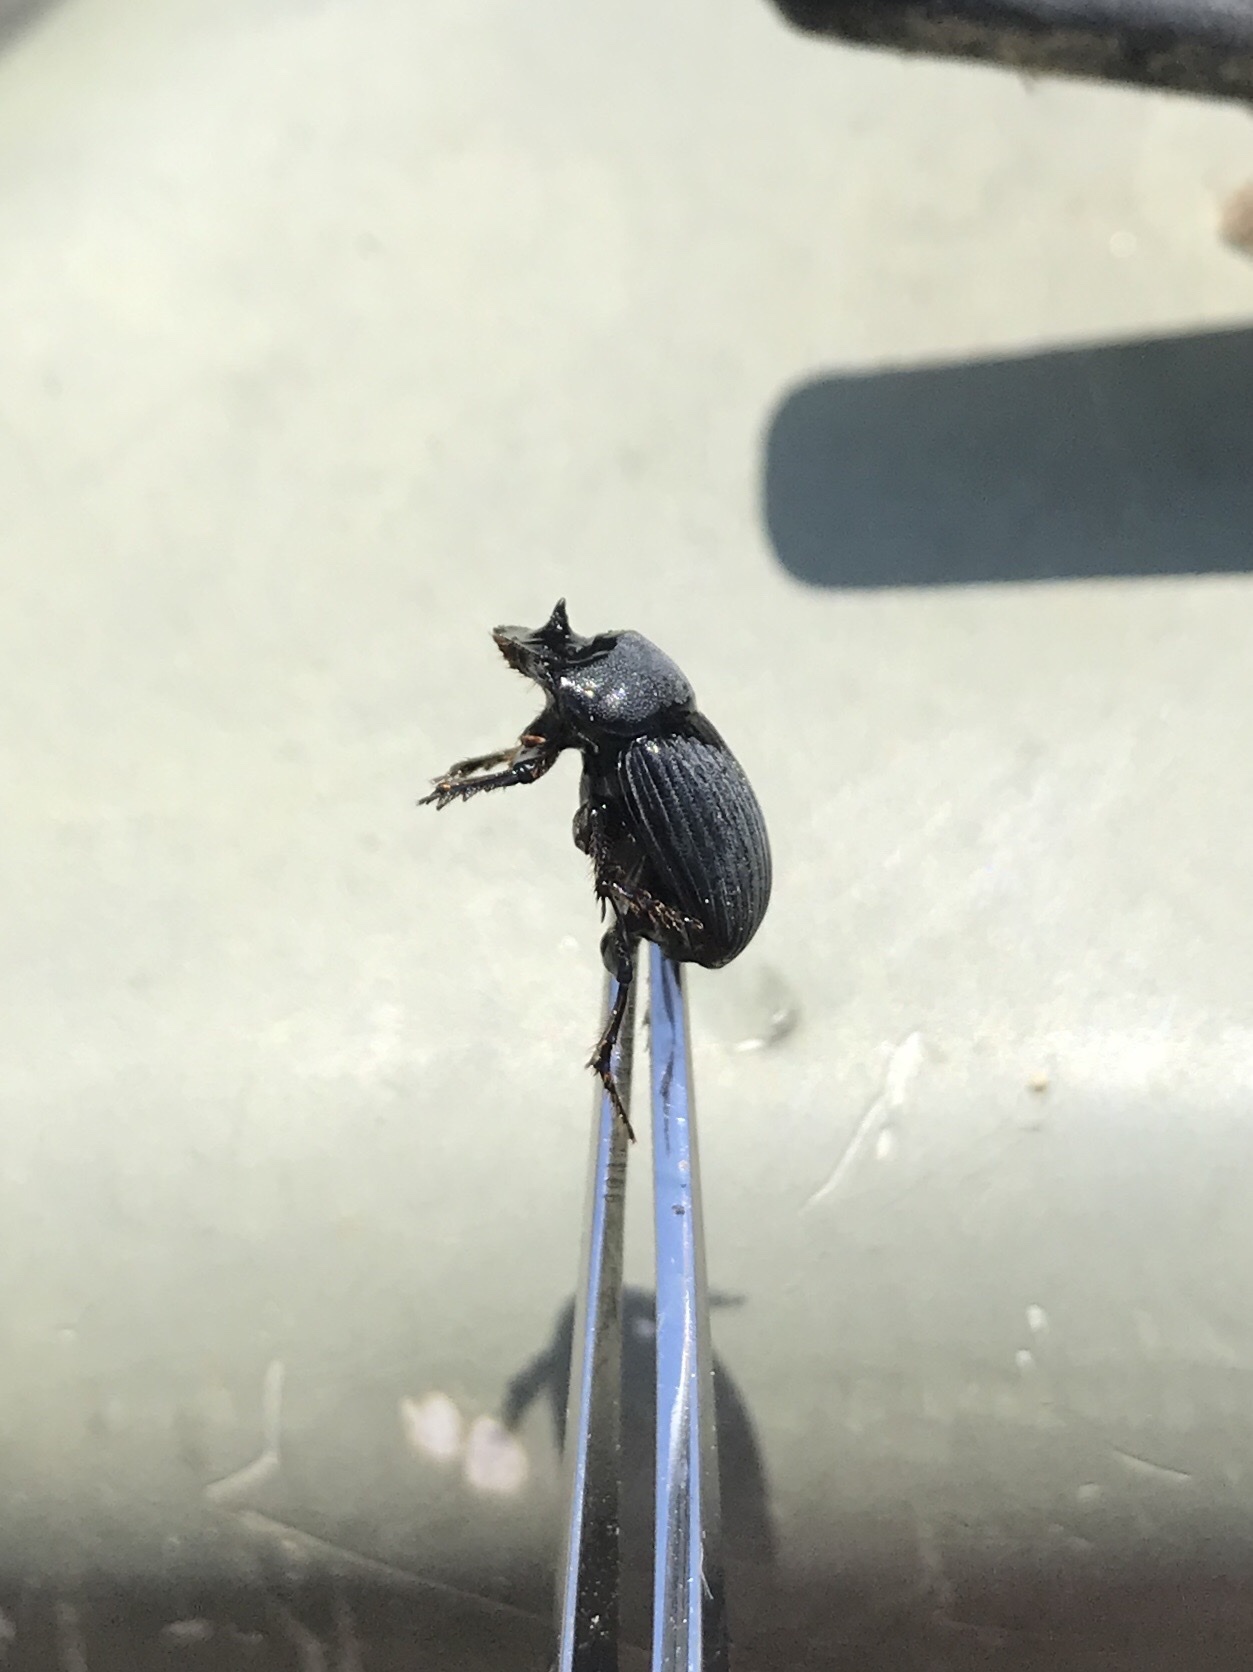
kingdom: Animalia
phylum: Arthropoda
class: Insecta
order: Coleoptera
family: Scarabaeidae
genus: Copris
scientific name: Copris minutus
